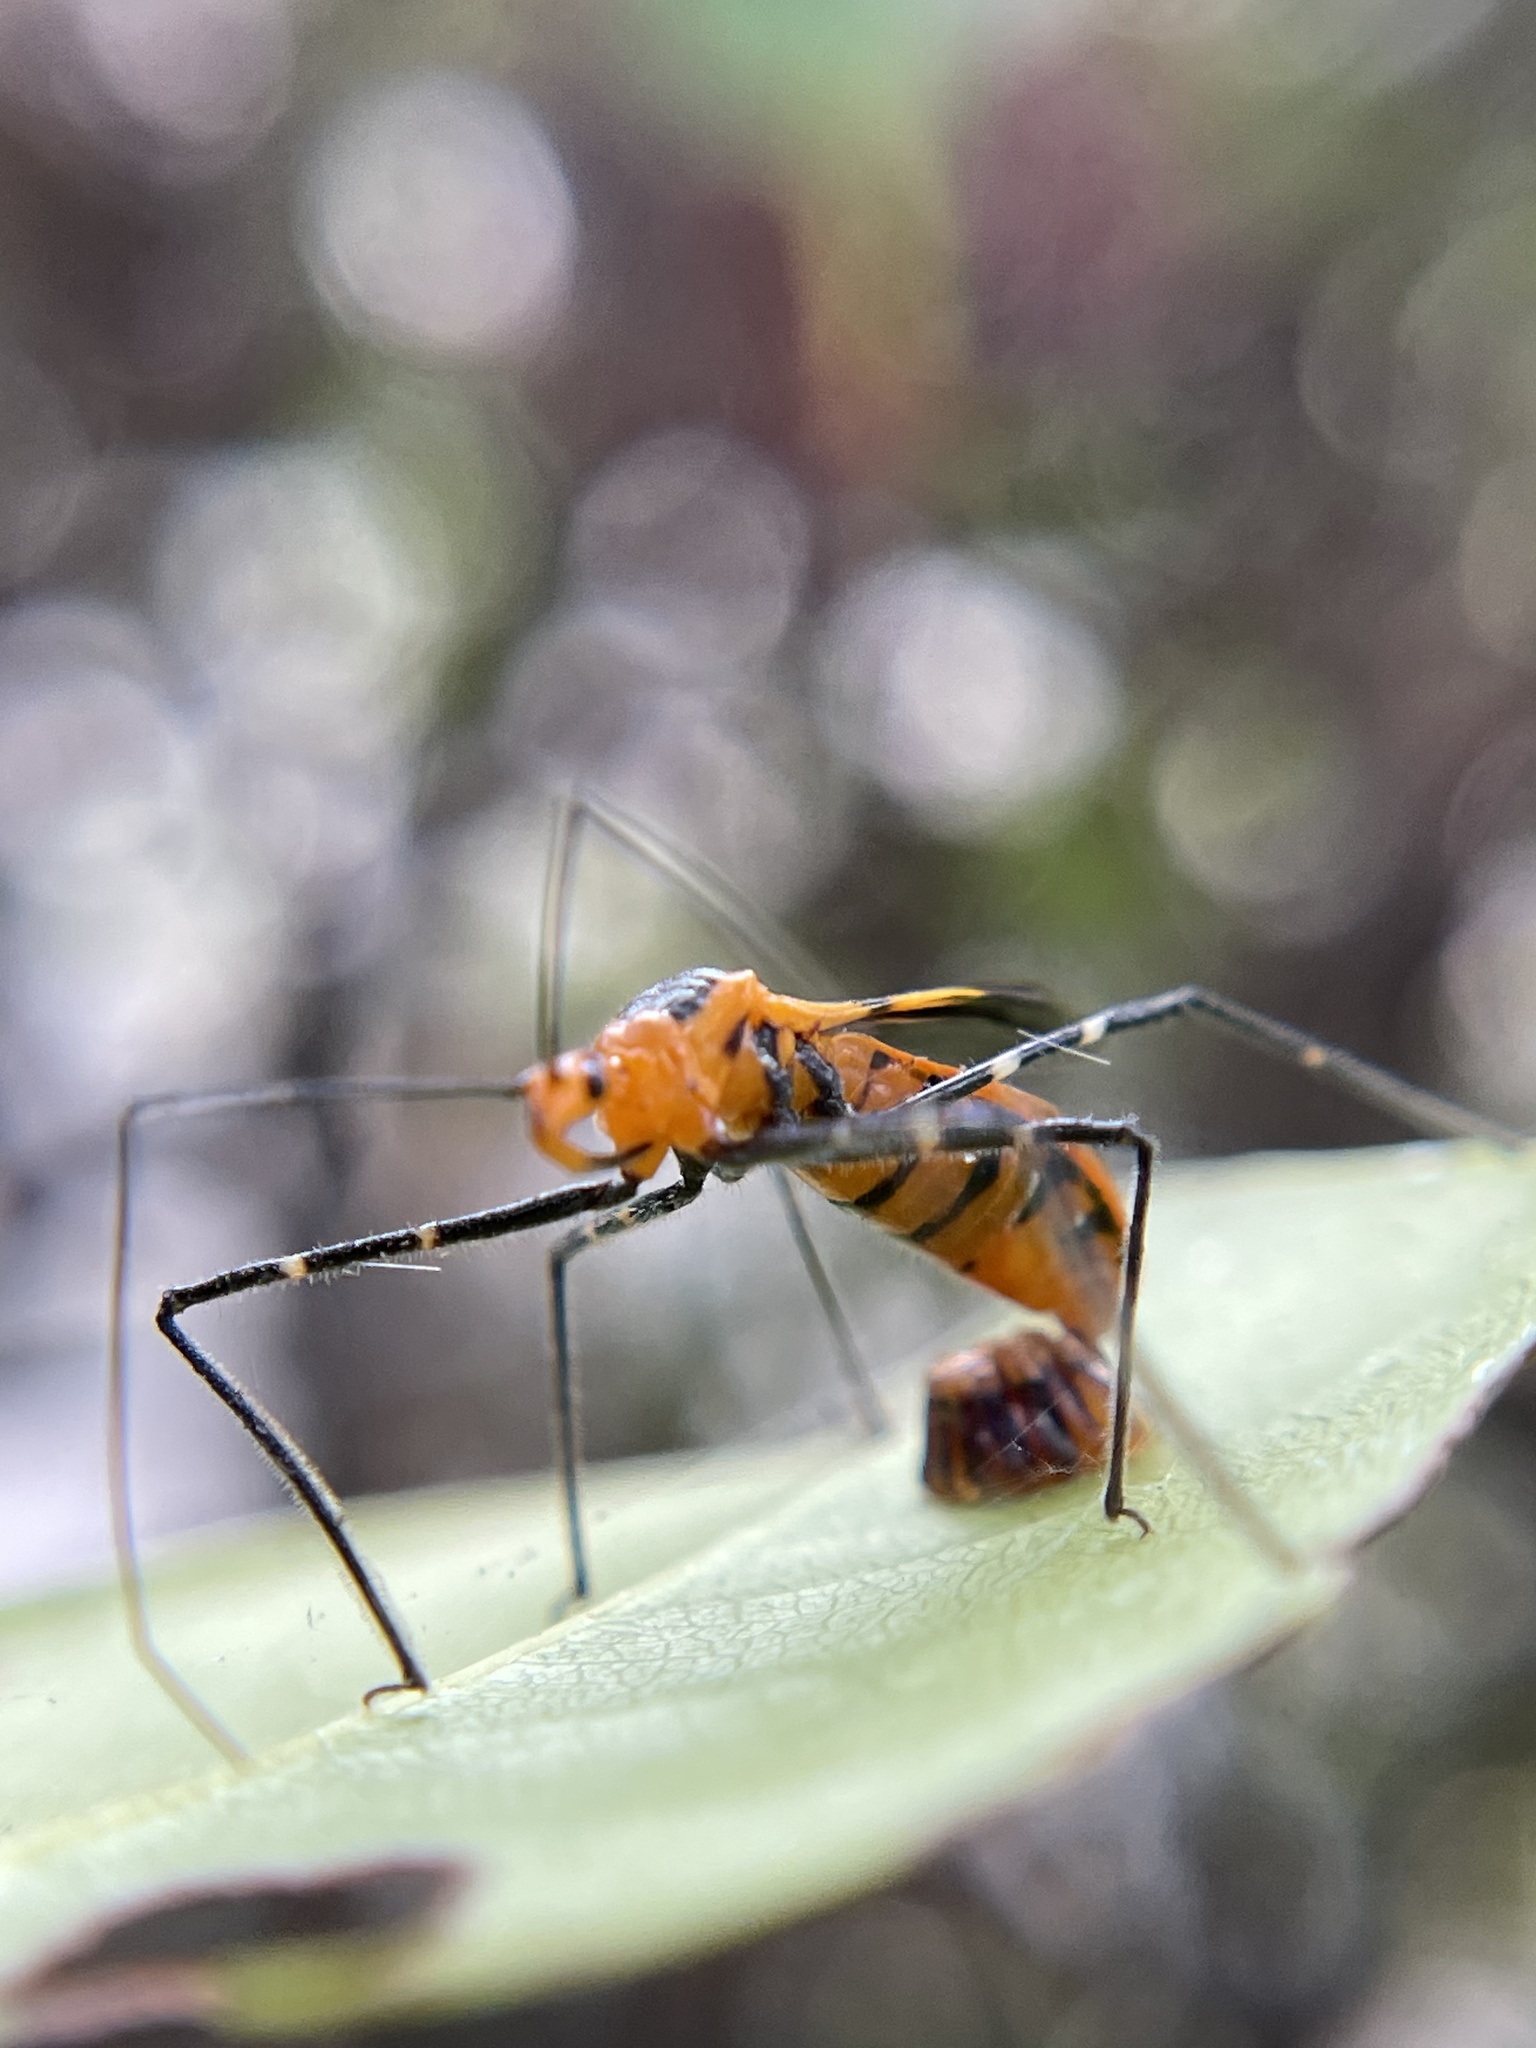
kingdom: Animalia
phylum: Arthropoda
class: Insecta
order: Hemiptera
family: Reduviidae
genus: Zelus
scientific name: Zelus longipes
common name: Milkweed assassin bug
